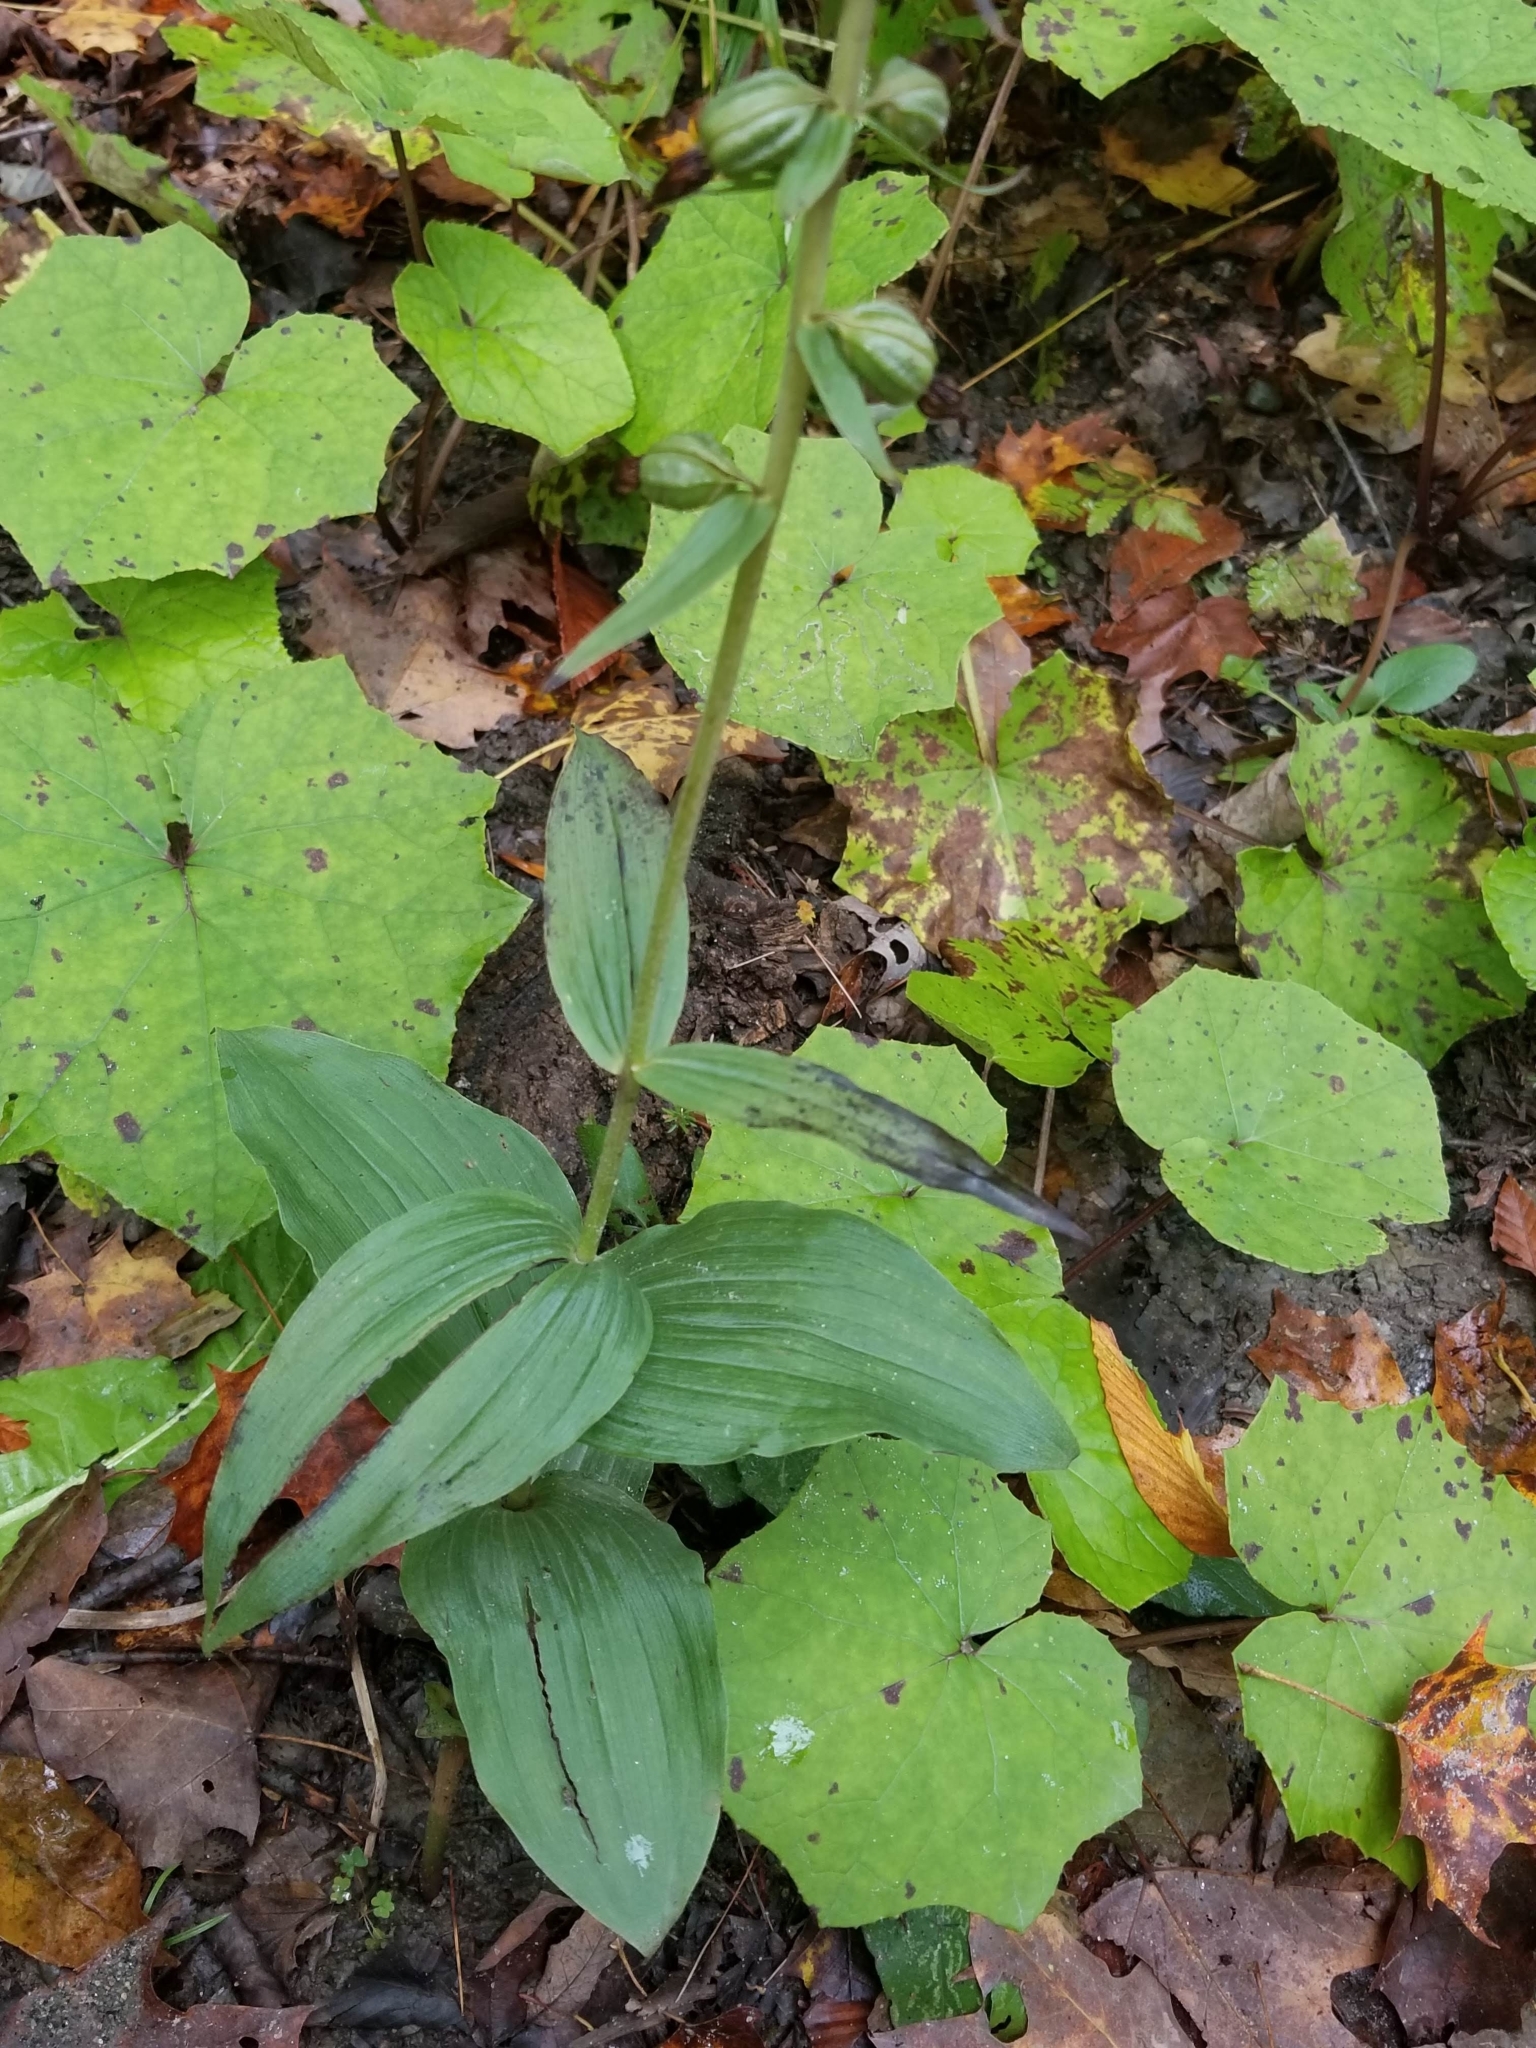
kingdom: Plantae
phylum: Tracheophyta
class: Liliopsida
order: Asparagales
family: Orchidaceae
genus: Epipactis
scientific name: Epipactis helleborine
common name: Broad-leaved helleborine
